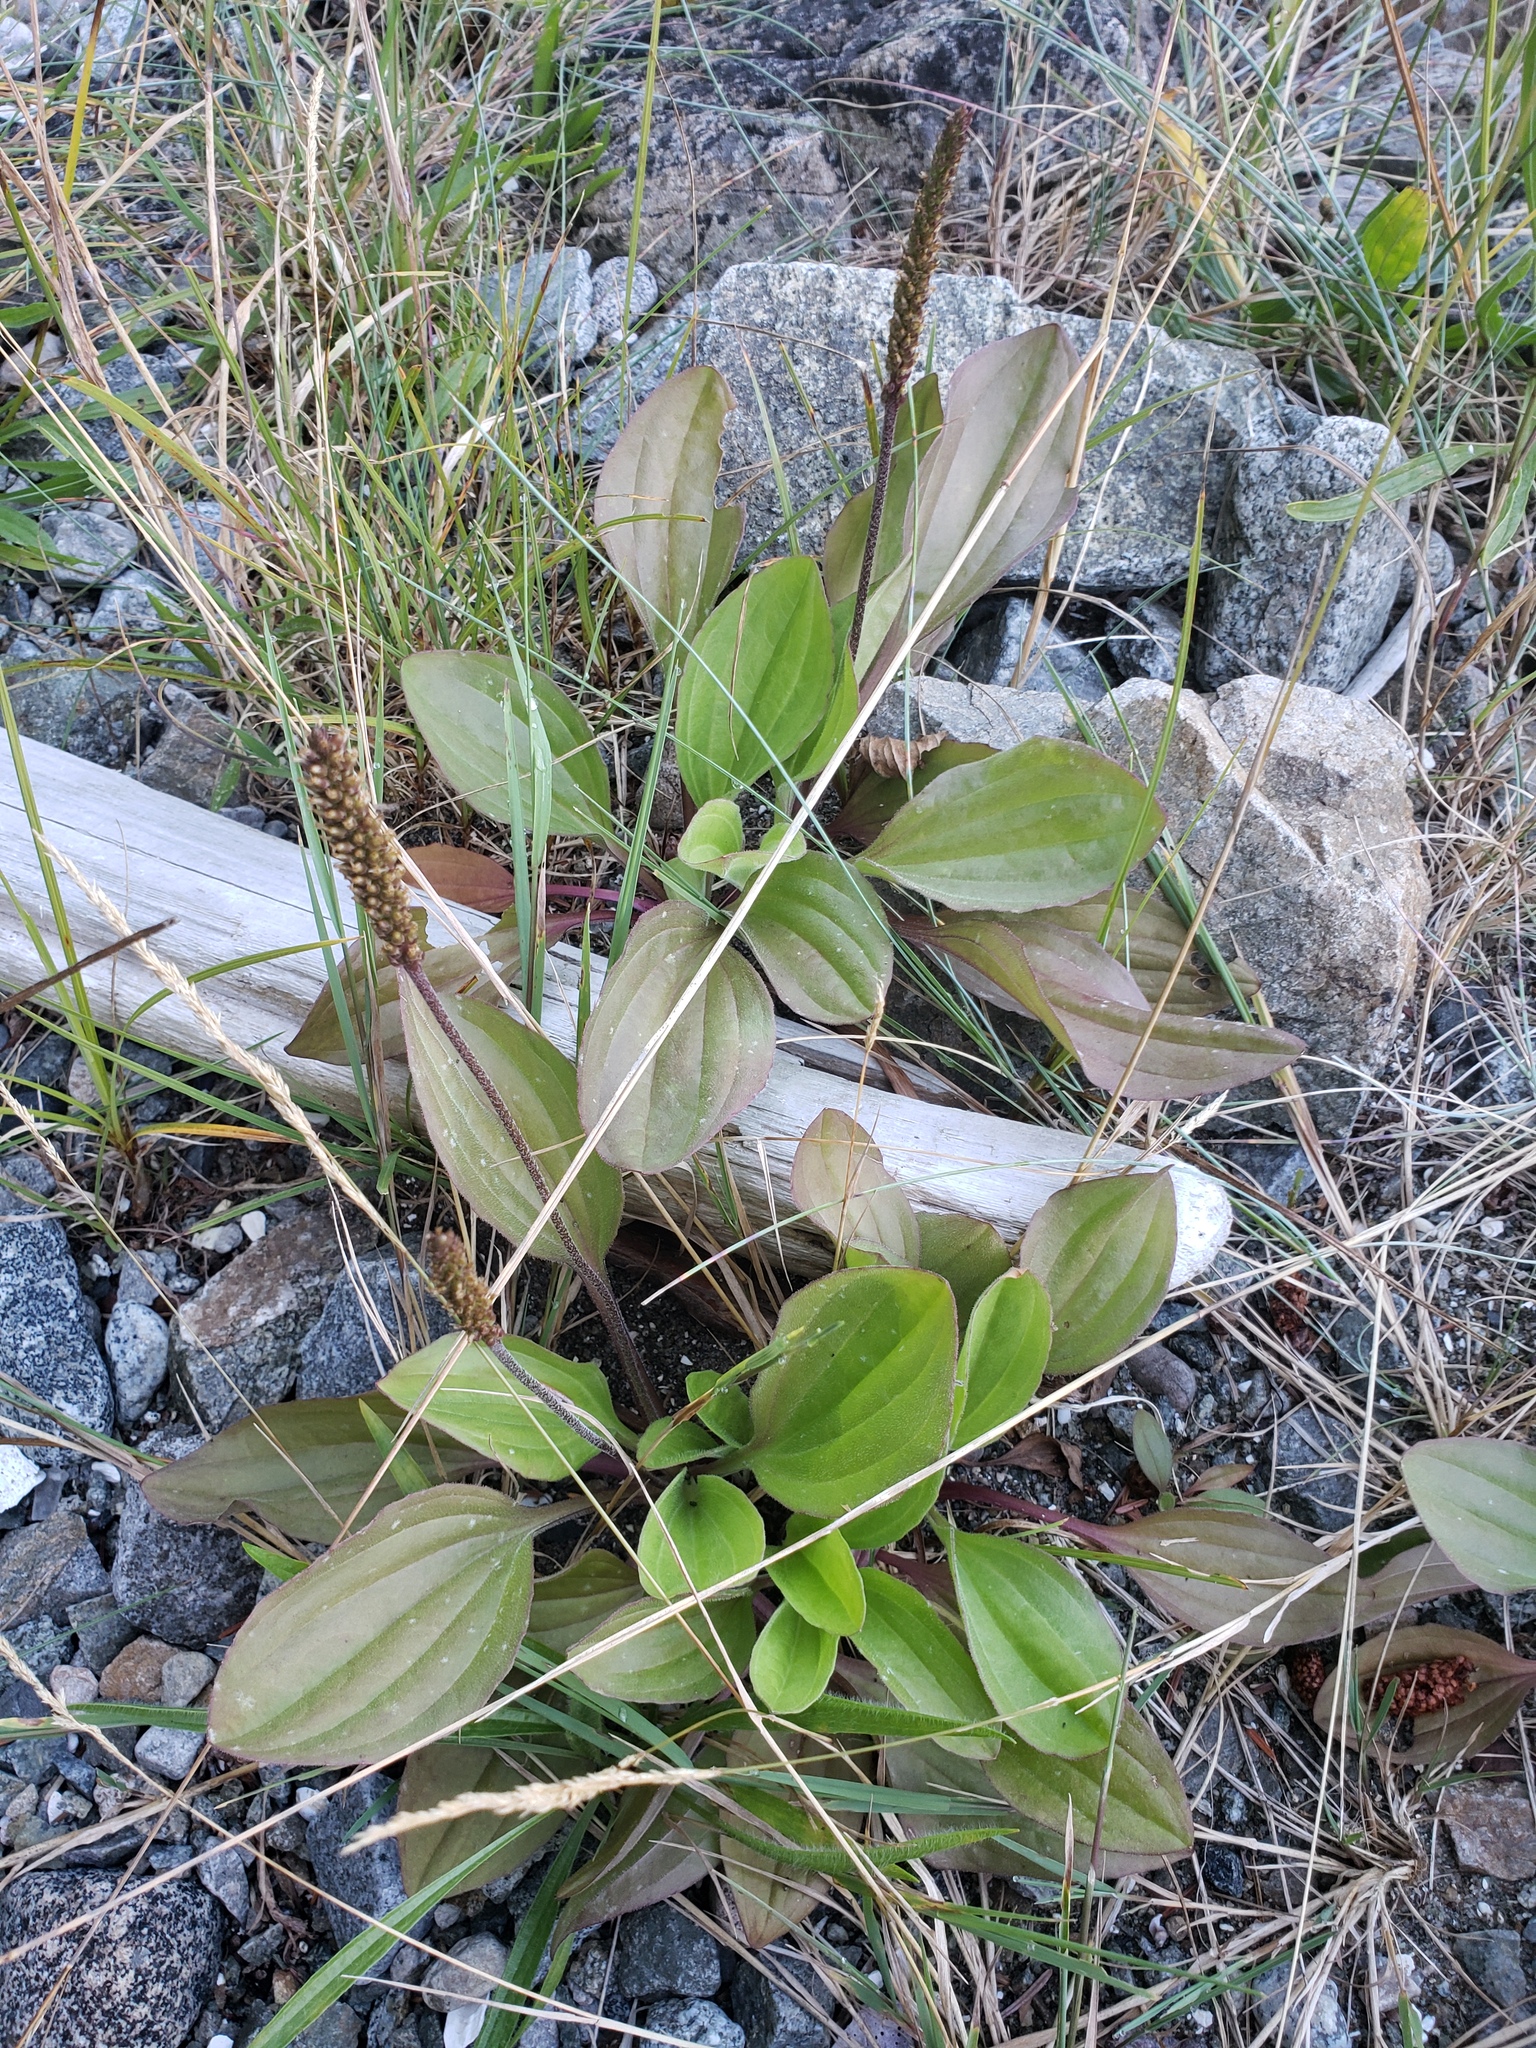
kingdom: Plantae
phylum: Tracheophyta
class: Magnoliopsida
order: Lamiales
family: Plantaginaceae
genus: Plantago
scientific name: Plantago major
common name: Common plantain
